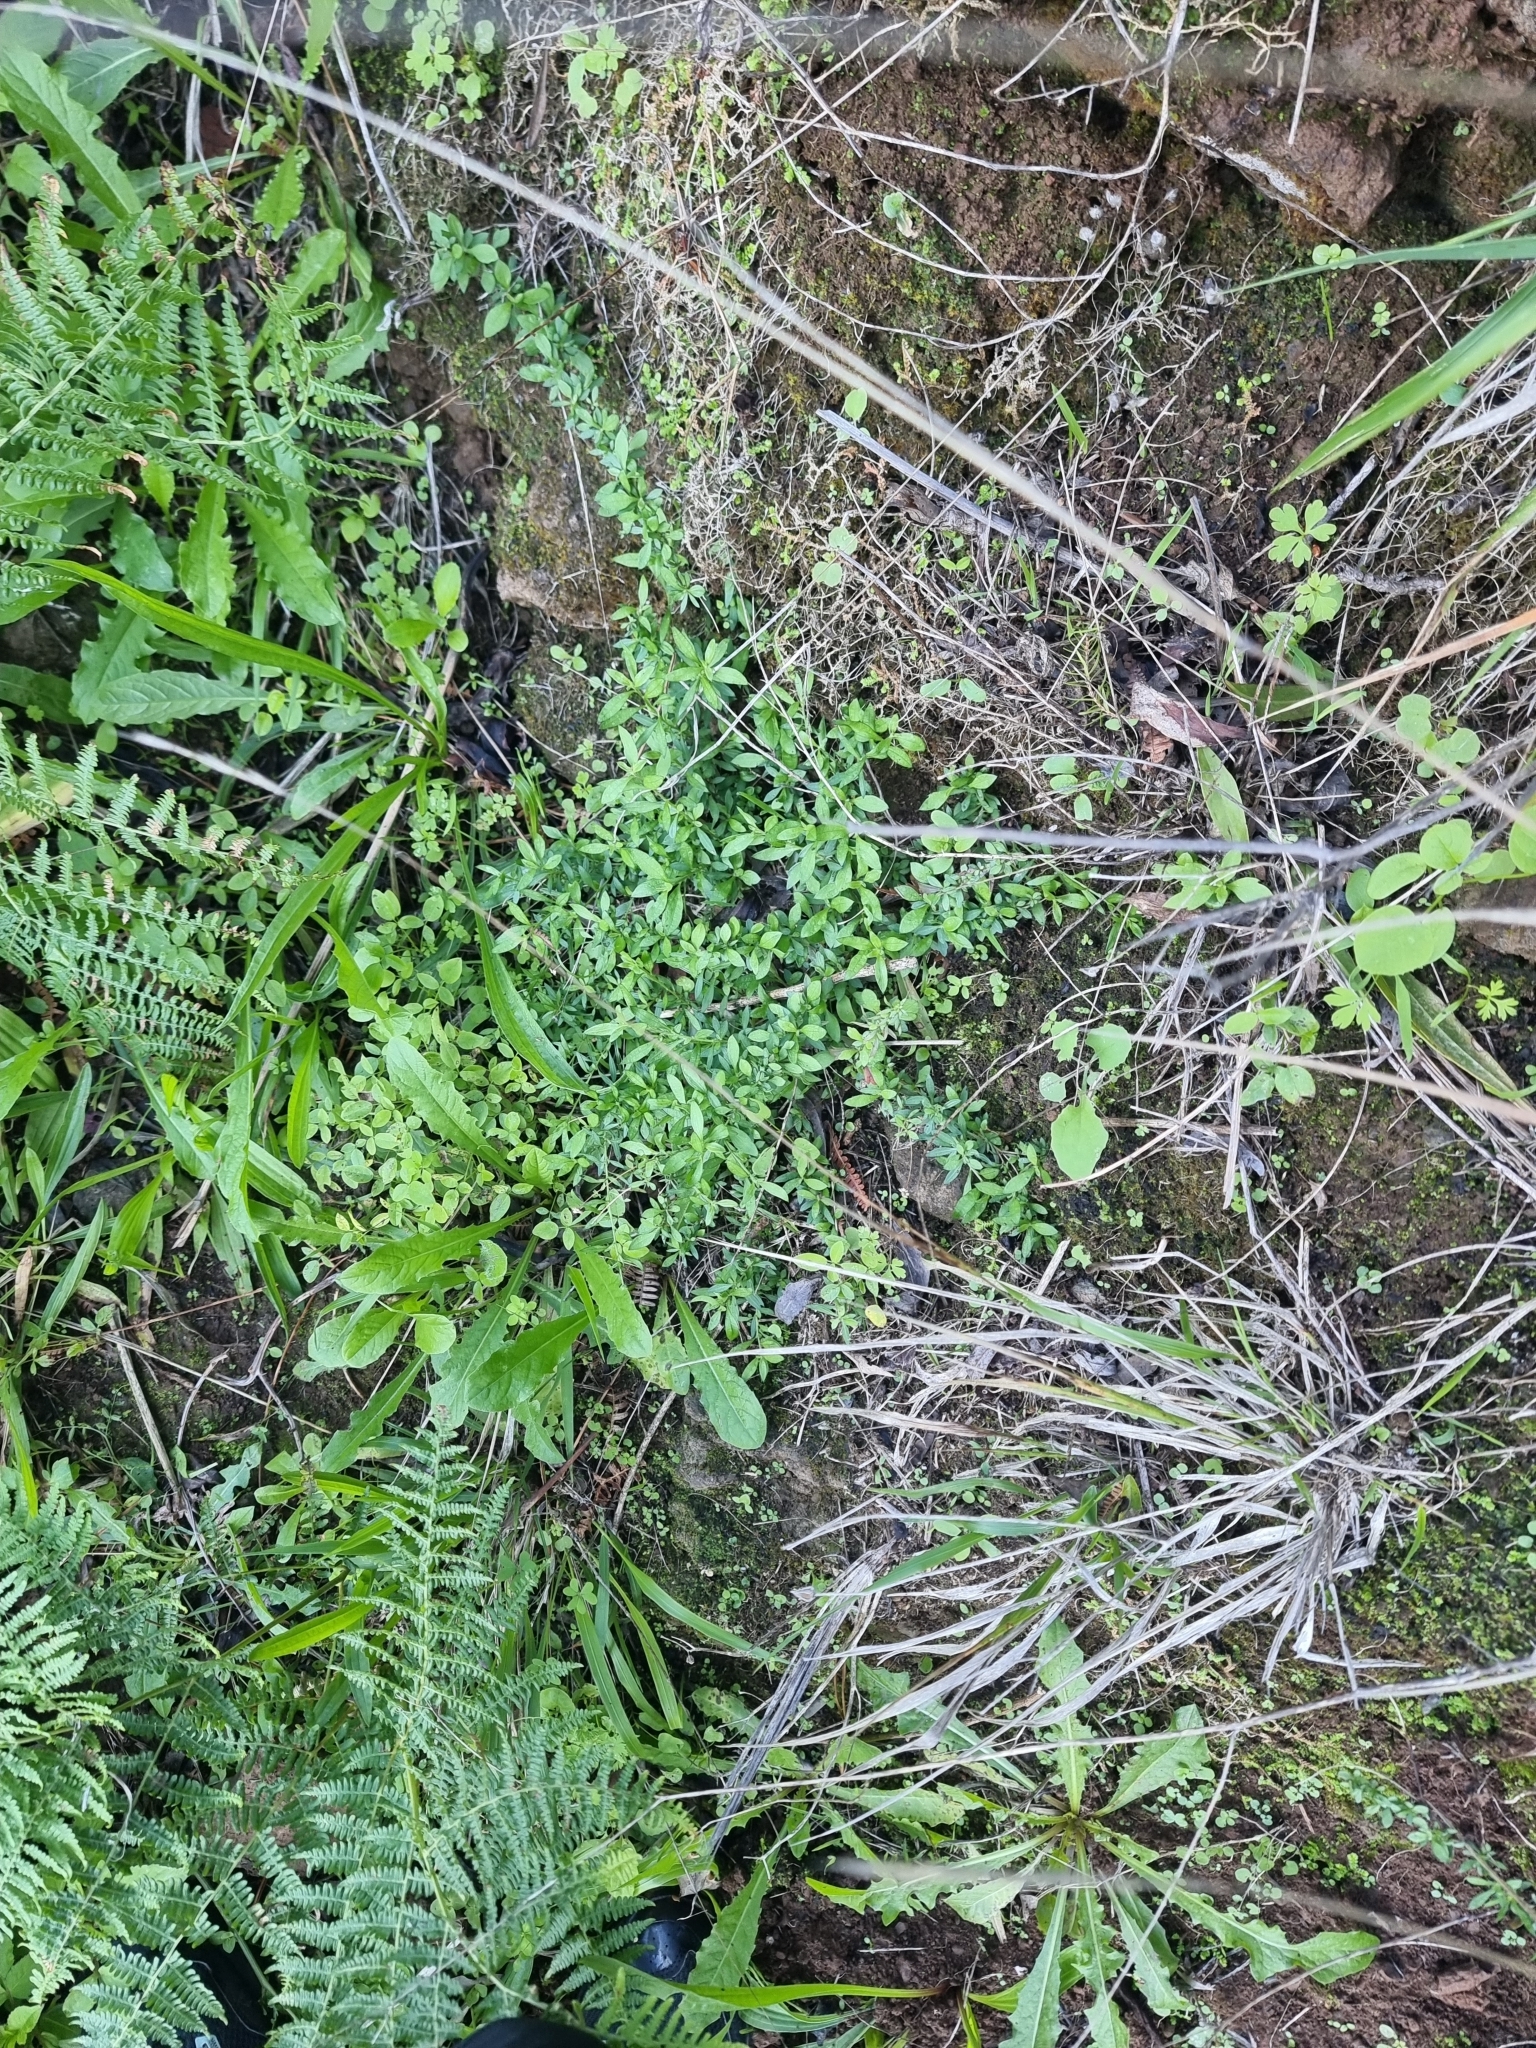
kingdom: Plantae
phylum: Tracheophyta
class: Magnoliopsida
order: Asterales
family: Asteraceae
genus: Erigeron
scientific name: Erigeron karvinskianus
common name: Mexican fleabane
